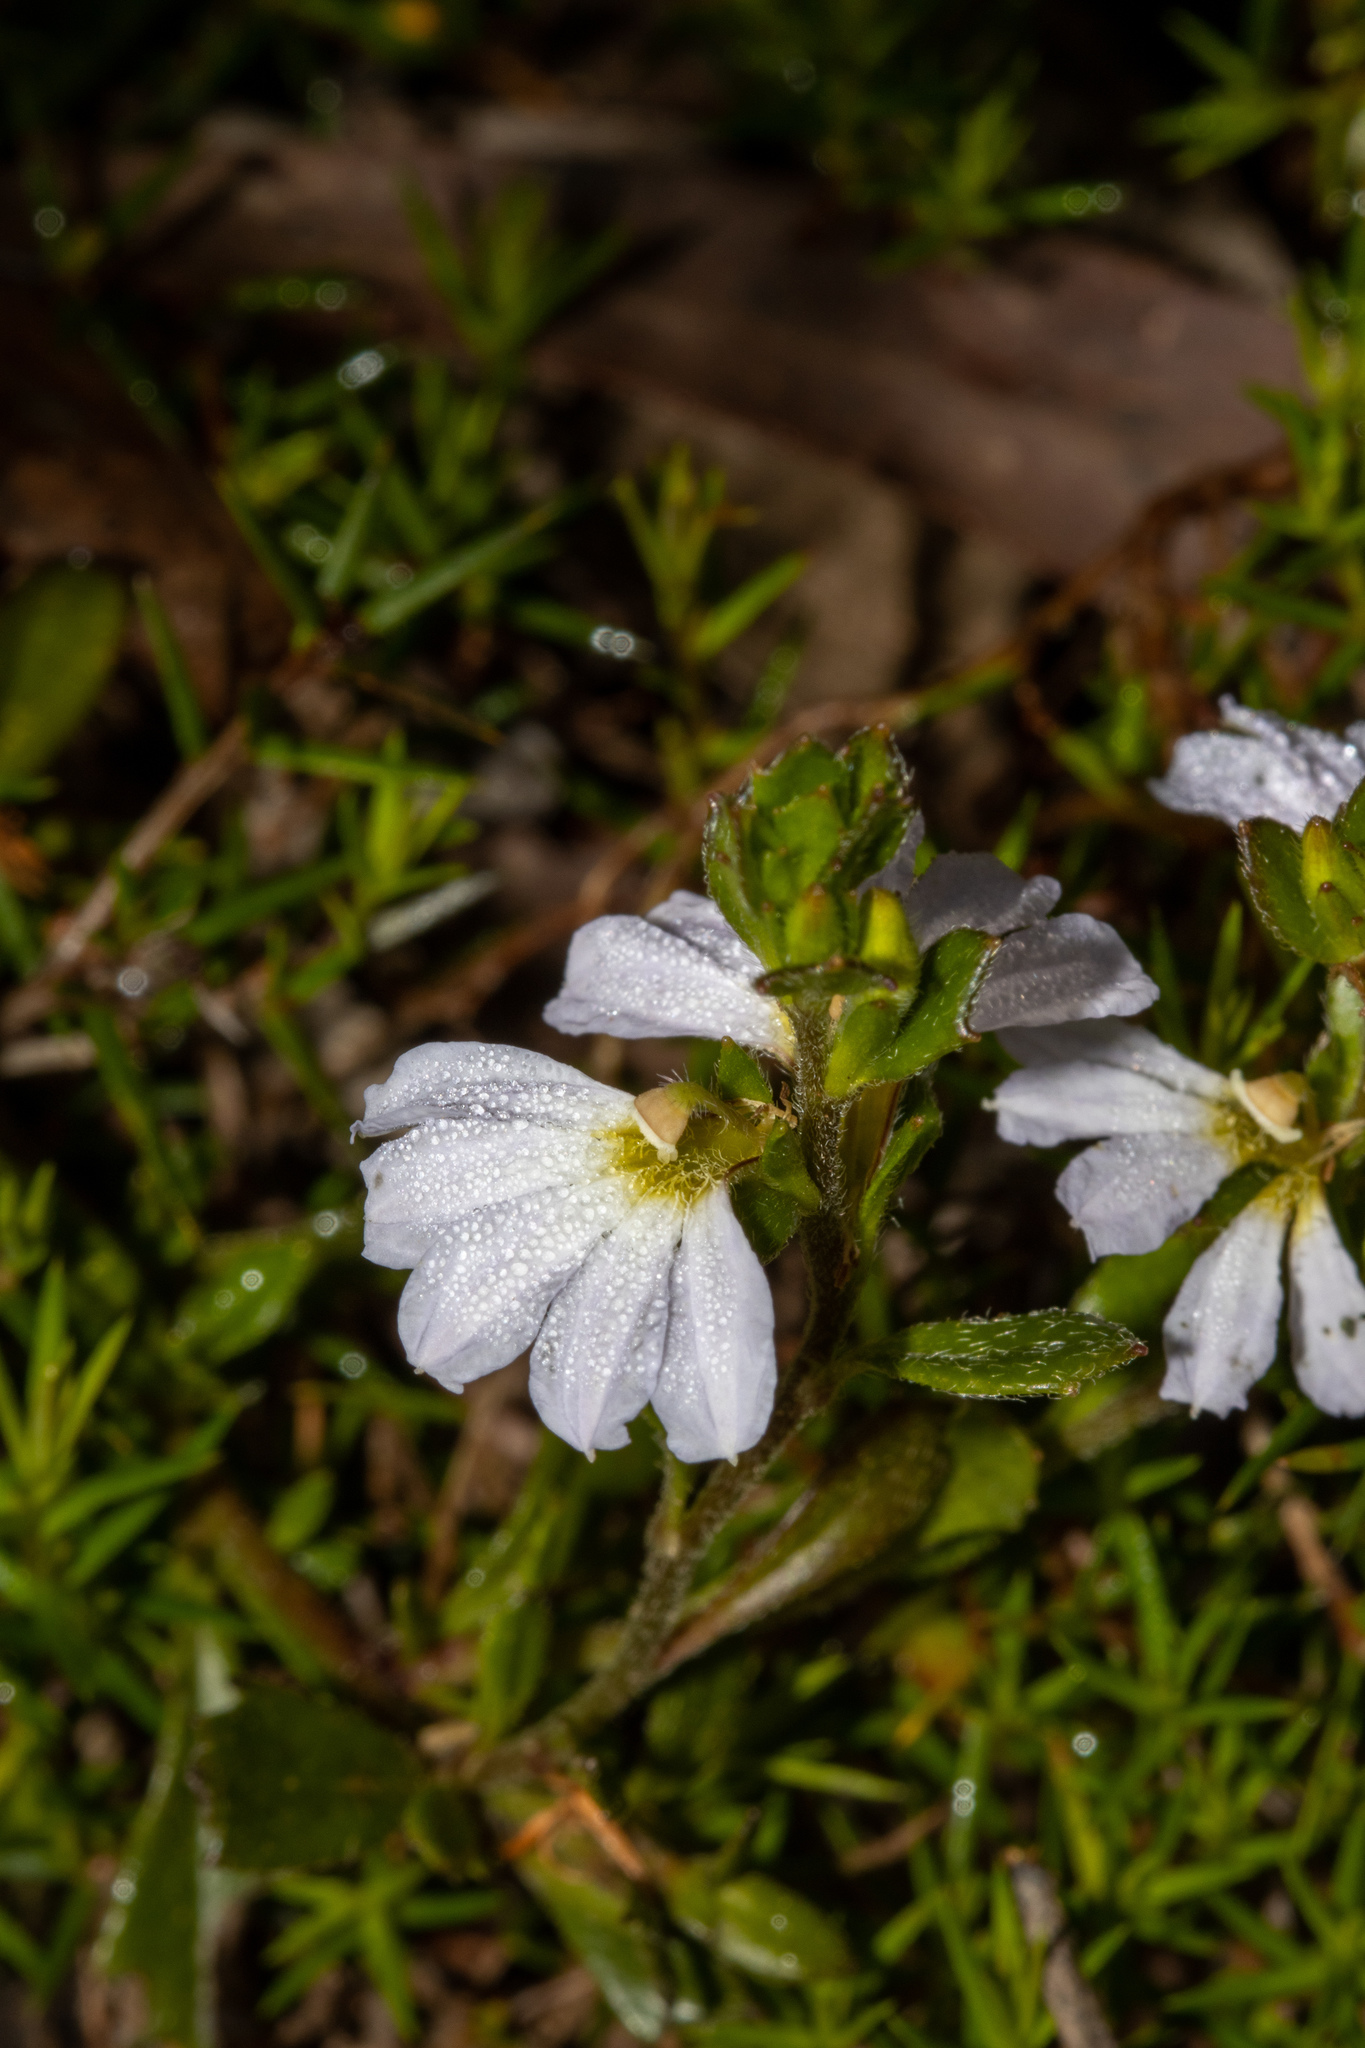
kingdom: Plantae
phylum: Tracheophyta
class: Magnoliopsida
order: Asterales
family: Goodeniaceae
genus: Scaevola
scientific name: Scaevola albida
